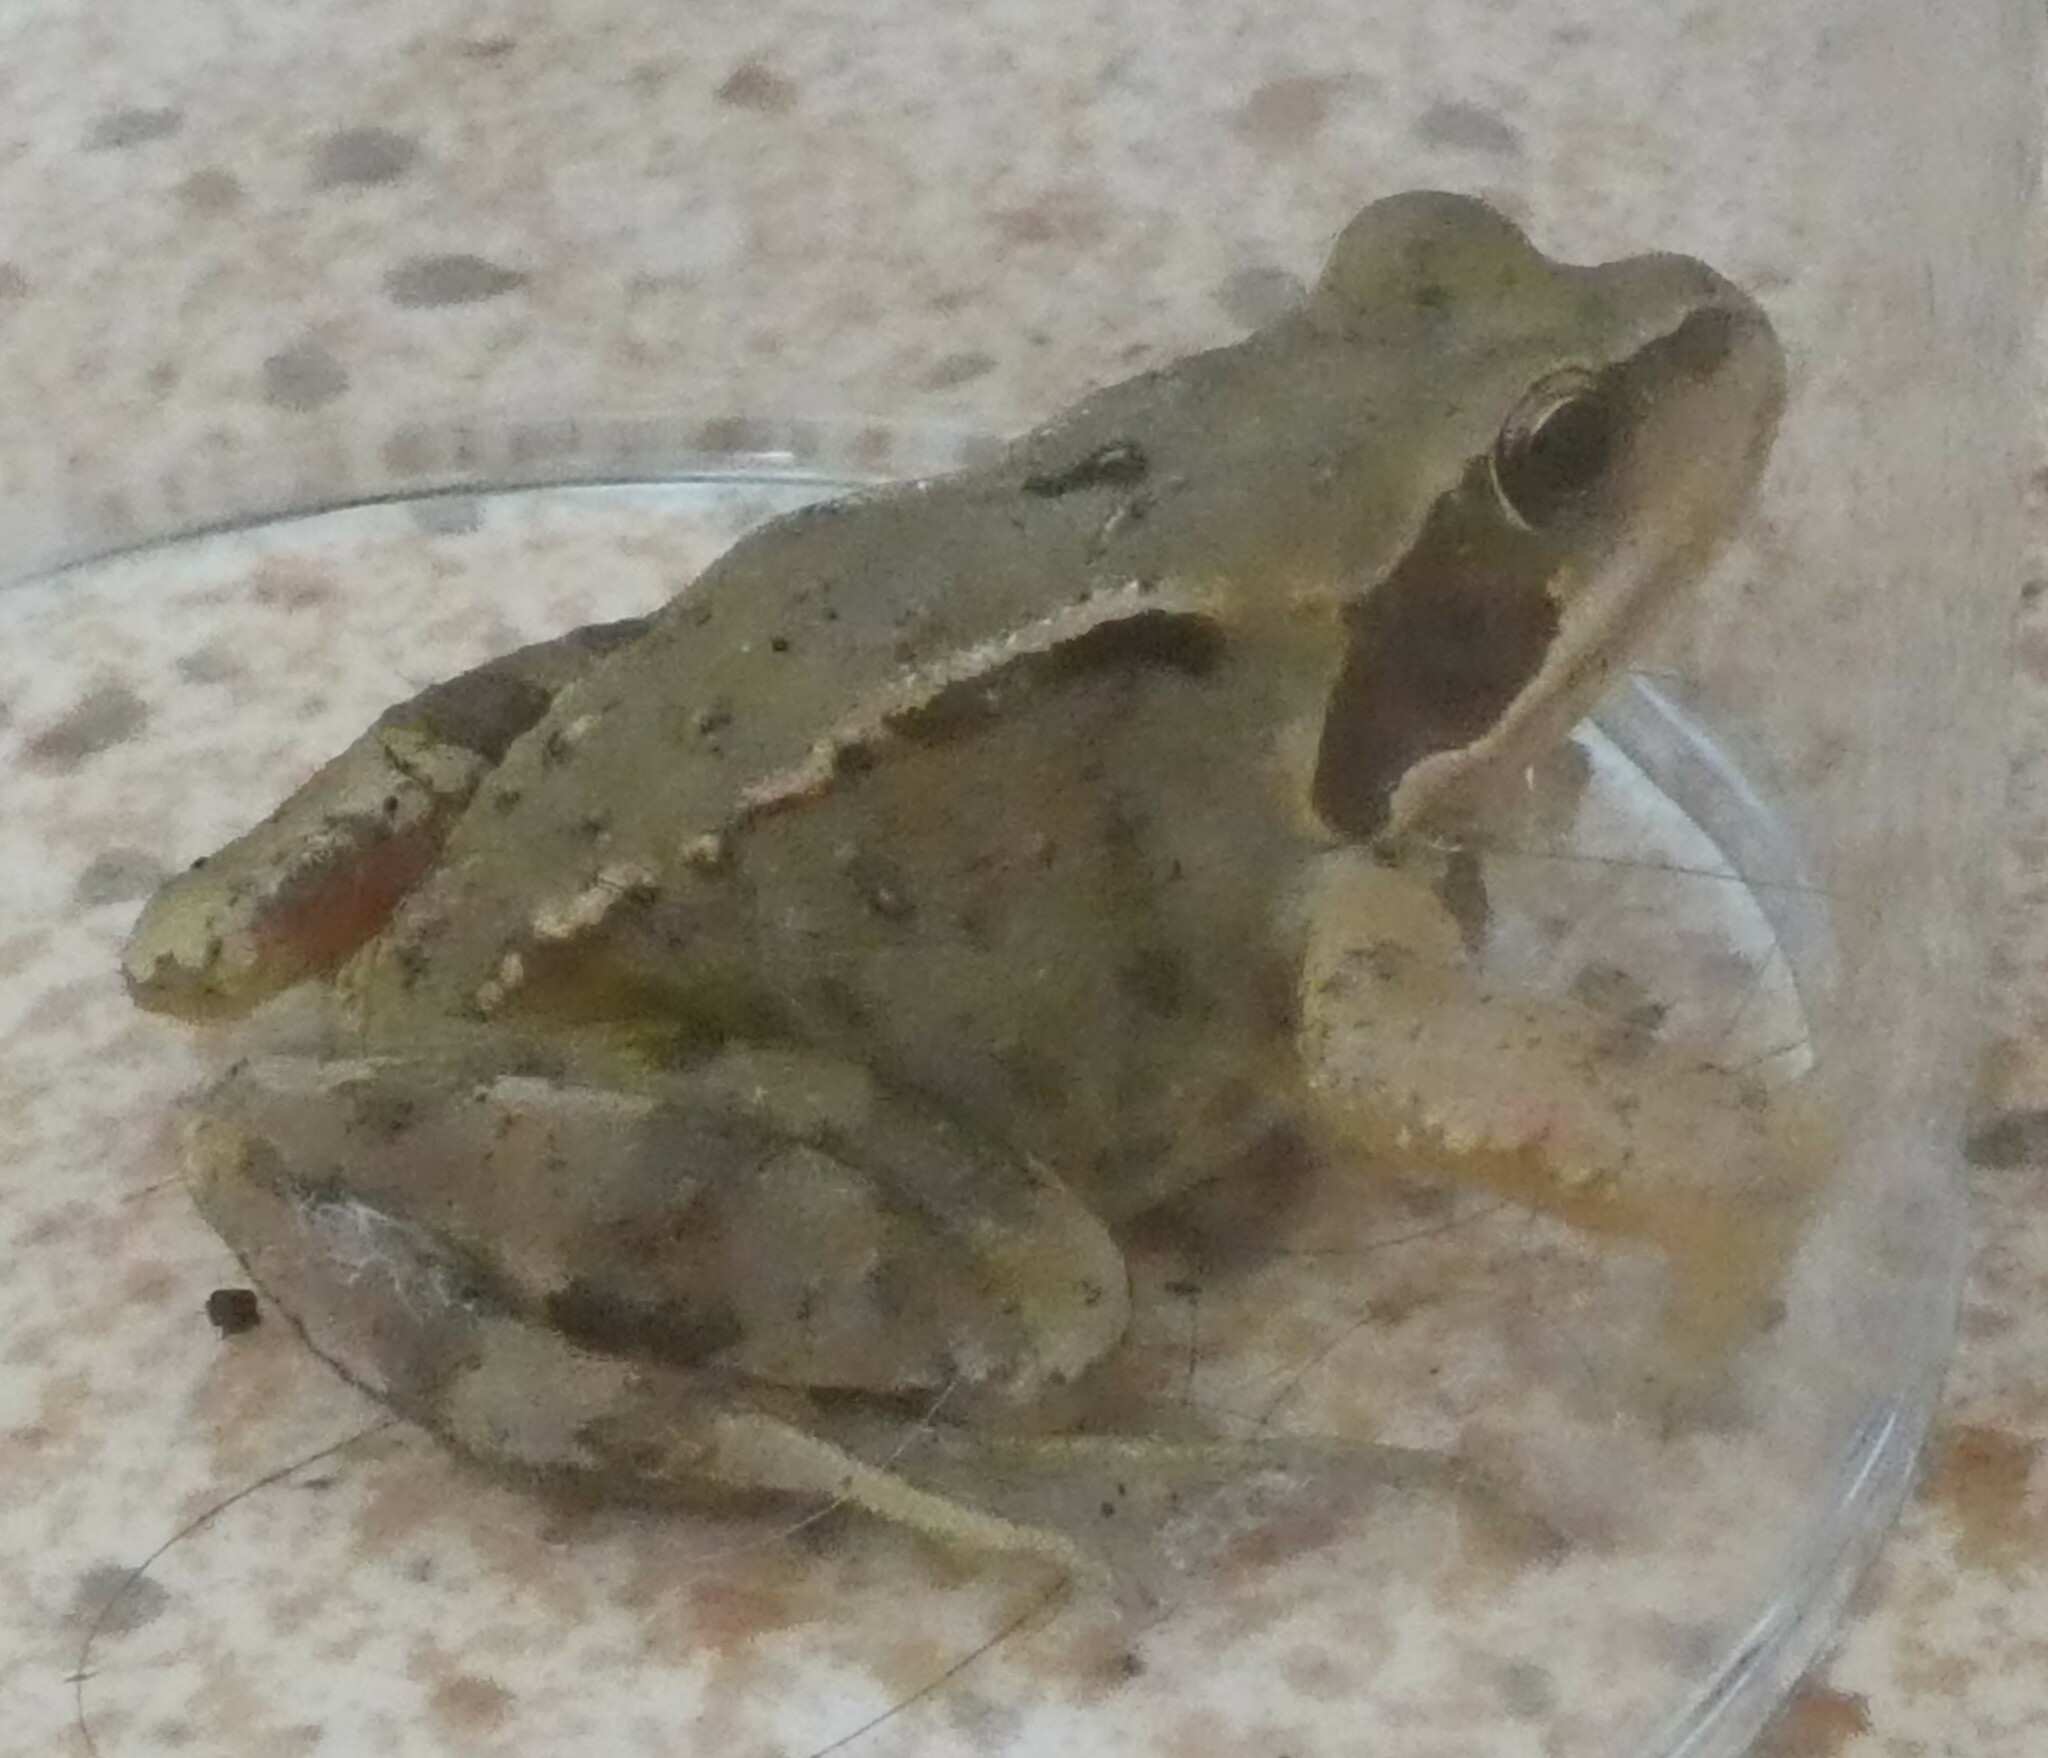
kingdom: Animalia
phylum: Chordata
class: Amphibia
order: Anura
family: Ranidae
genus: Rana
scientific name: Rana temporaria
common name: Common frog
